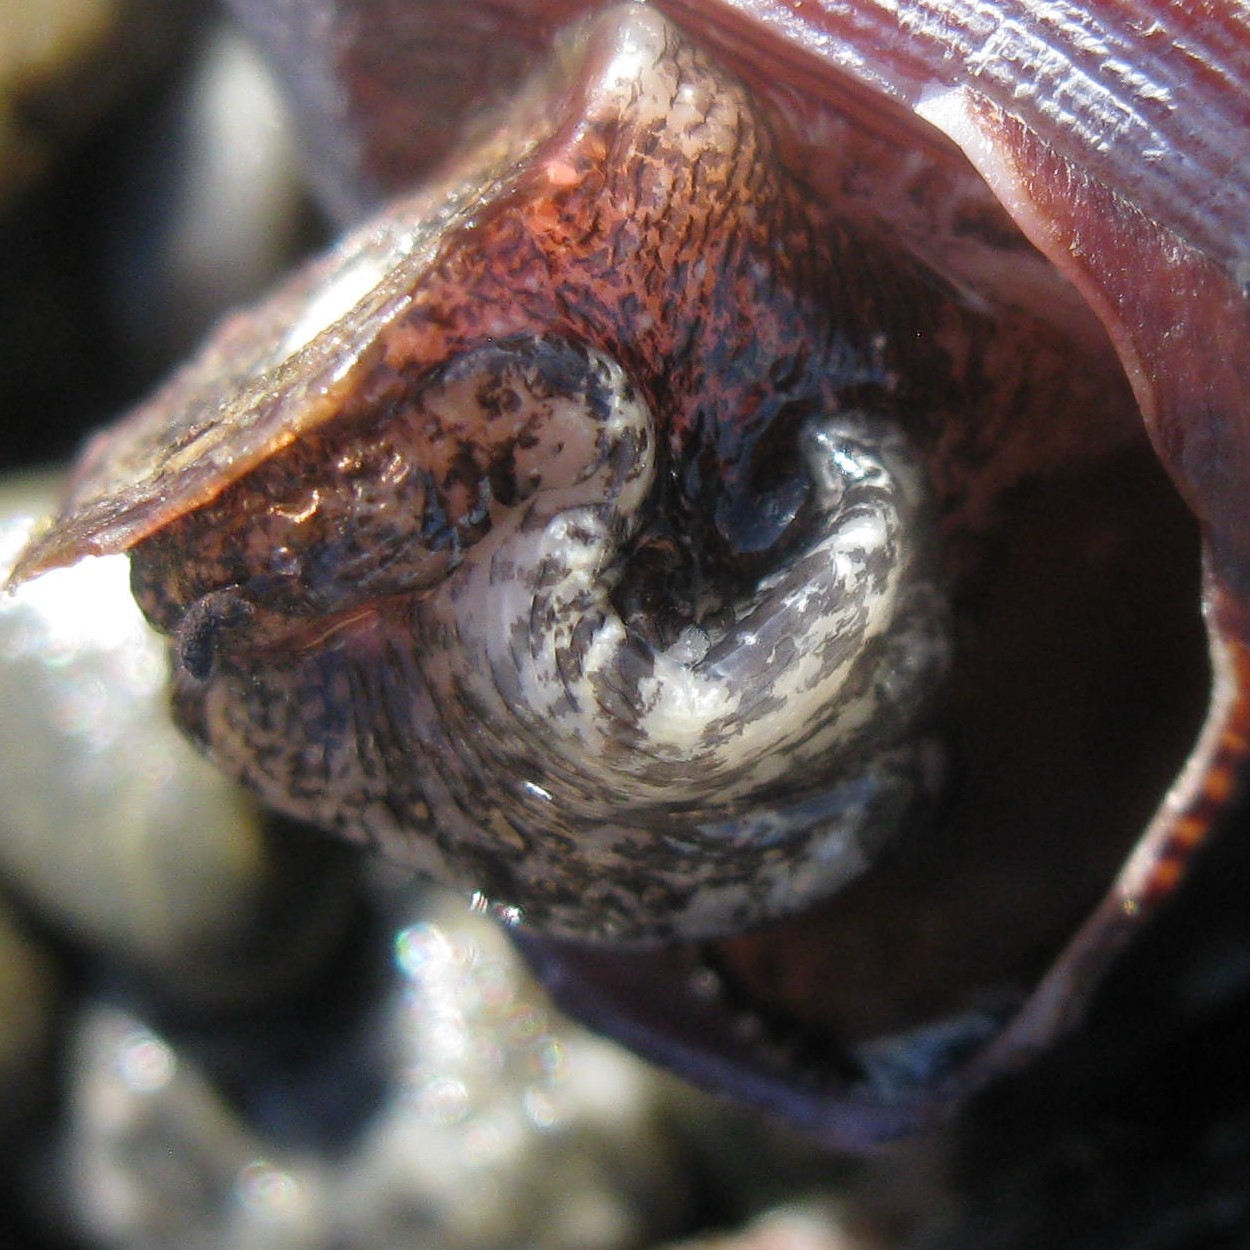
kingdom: Animalia
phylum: Mollusca
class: Gastropoda
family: Turritellidae
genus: Maoricolpus
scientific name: Maoricolpus roseus
